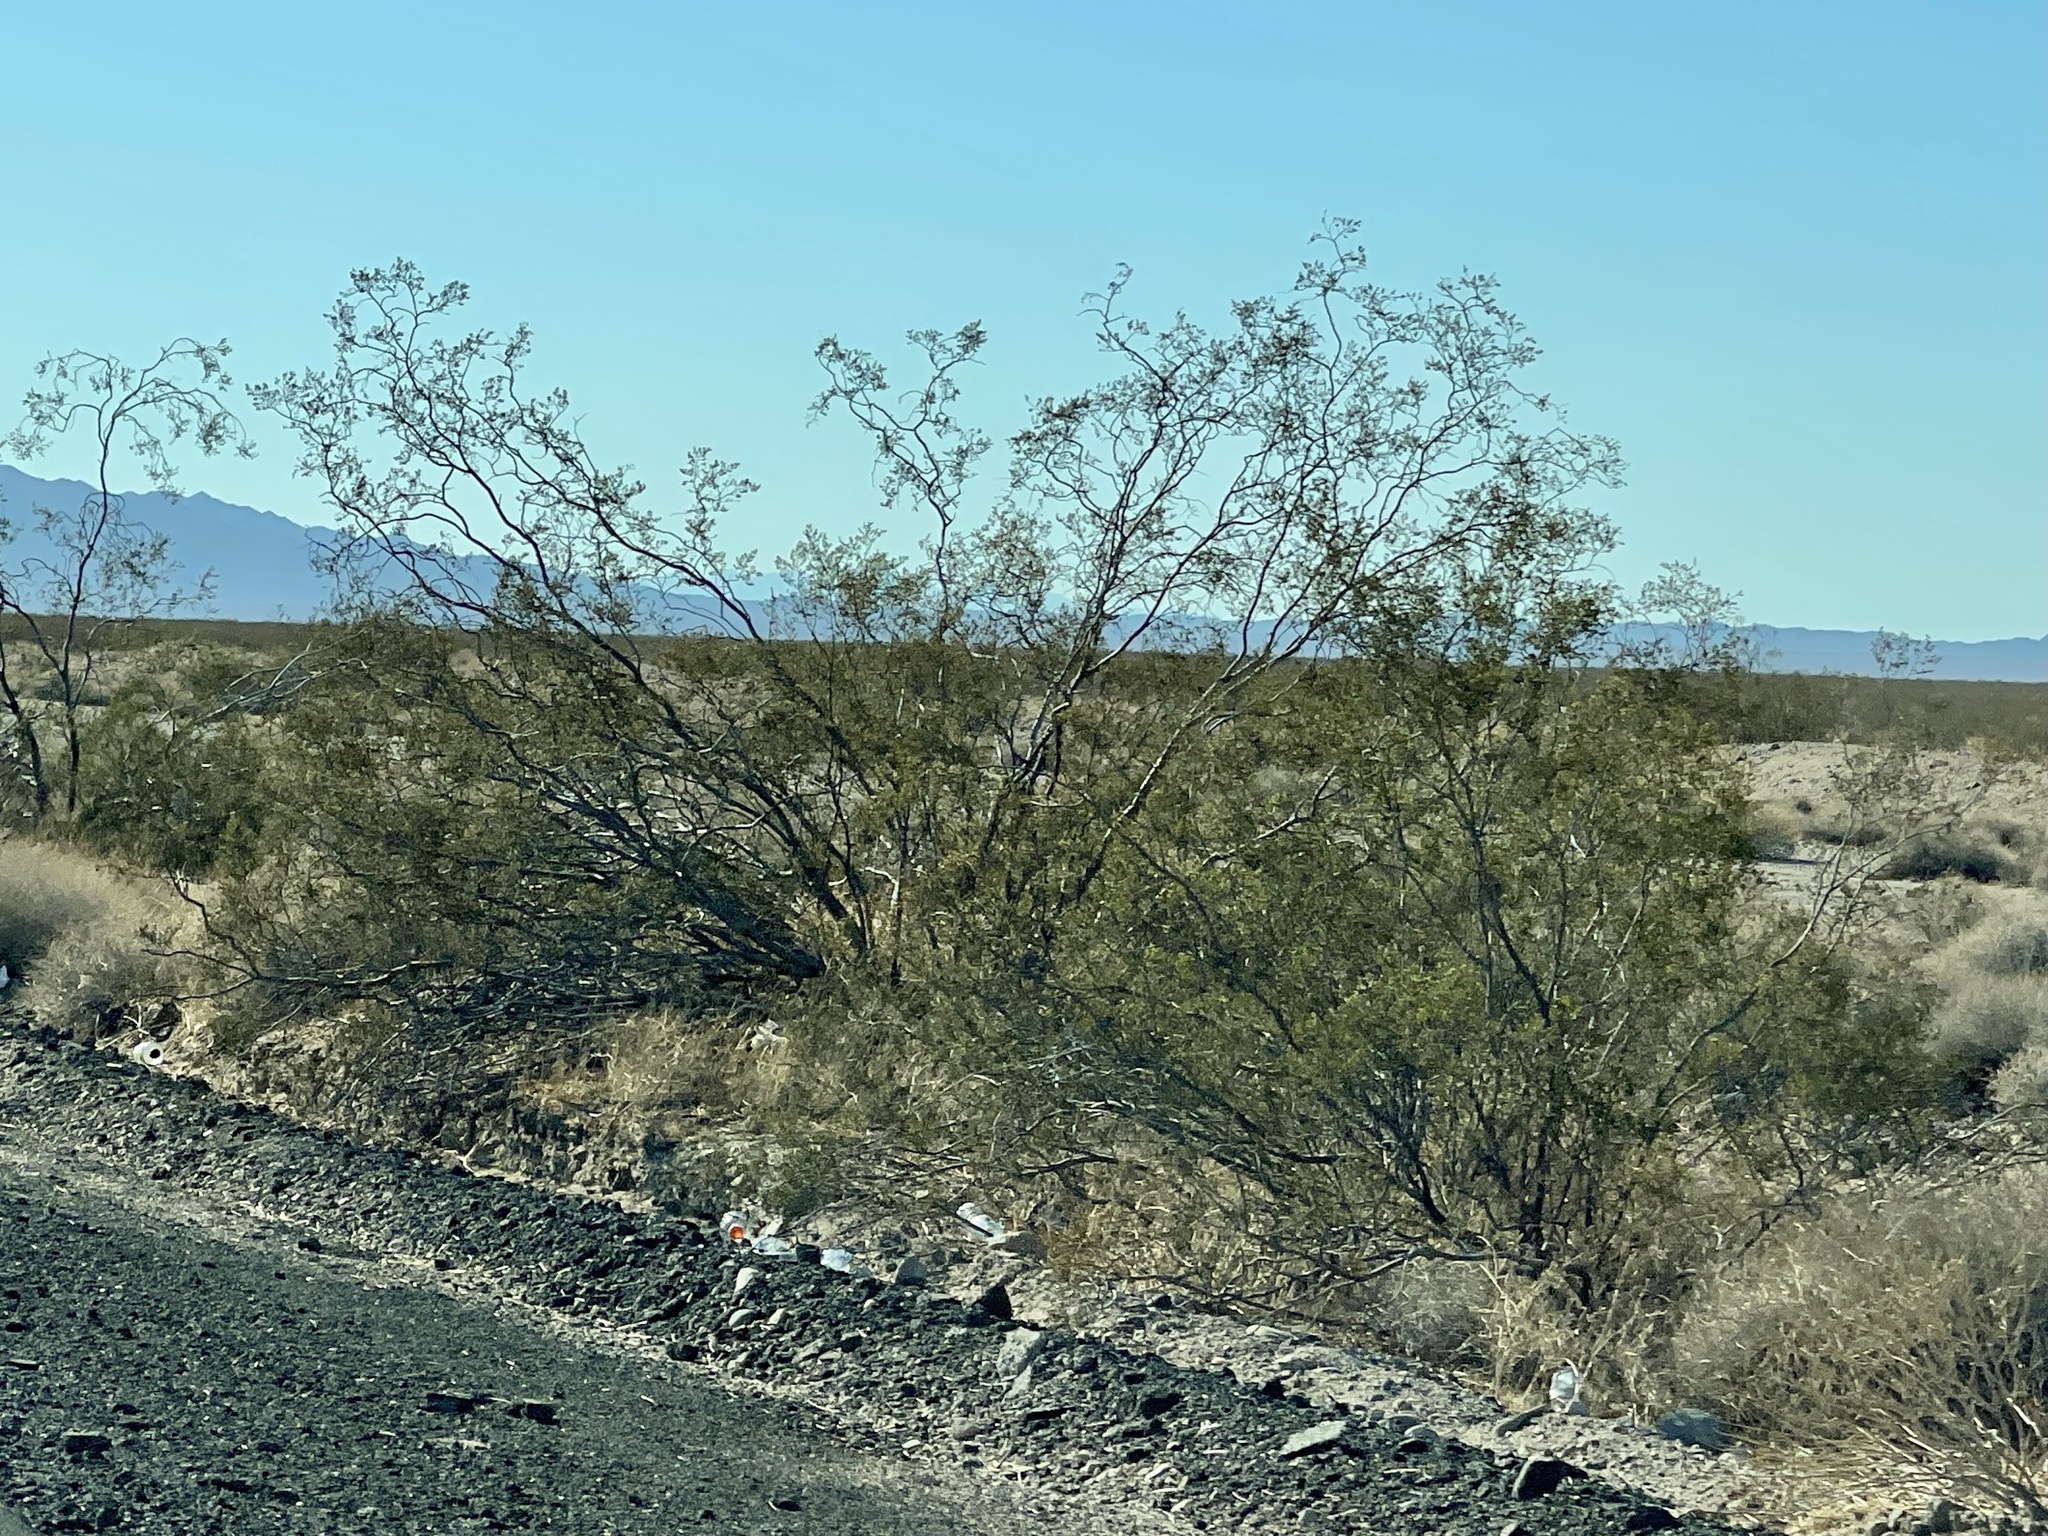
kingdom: Plantae
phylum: Tracheophyta
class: Magnoliopsida
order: Zygophyllales
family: Zygophyllaceae
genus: Larrea
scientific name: Larrea tridentata
